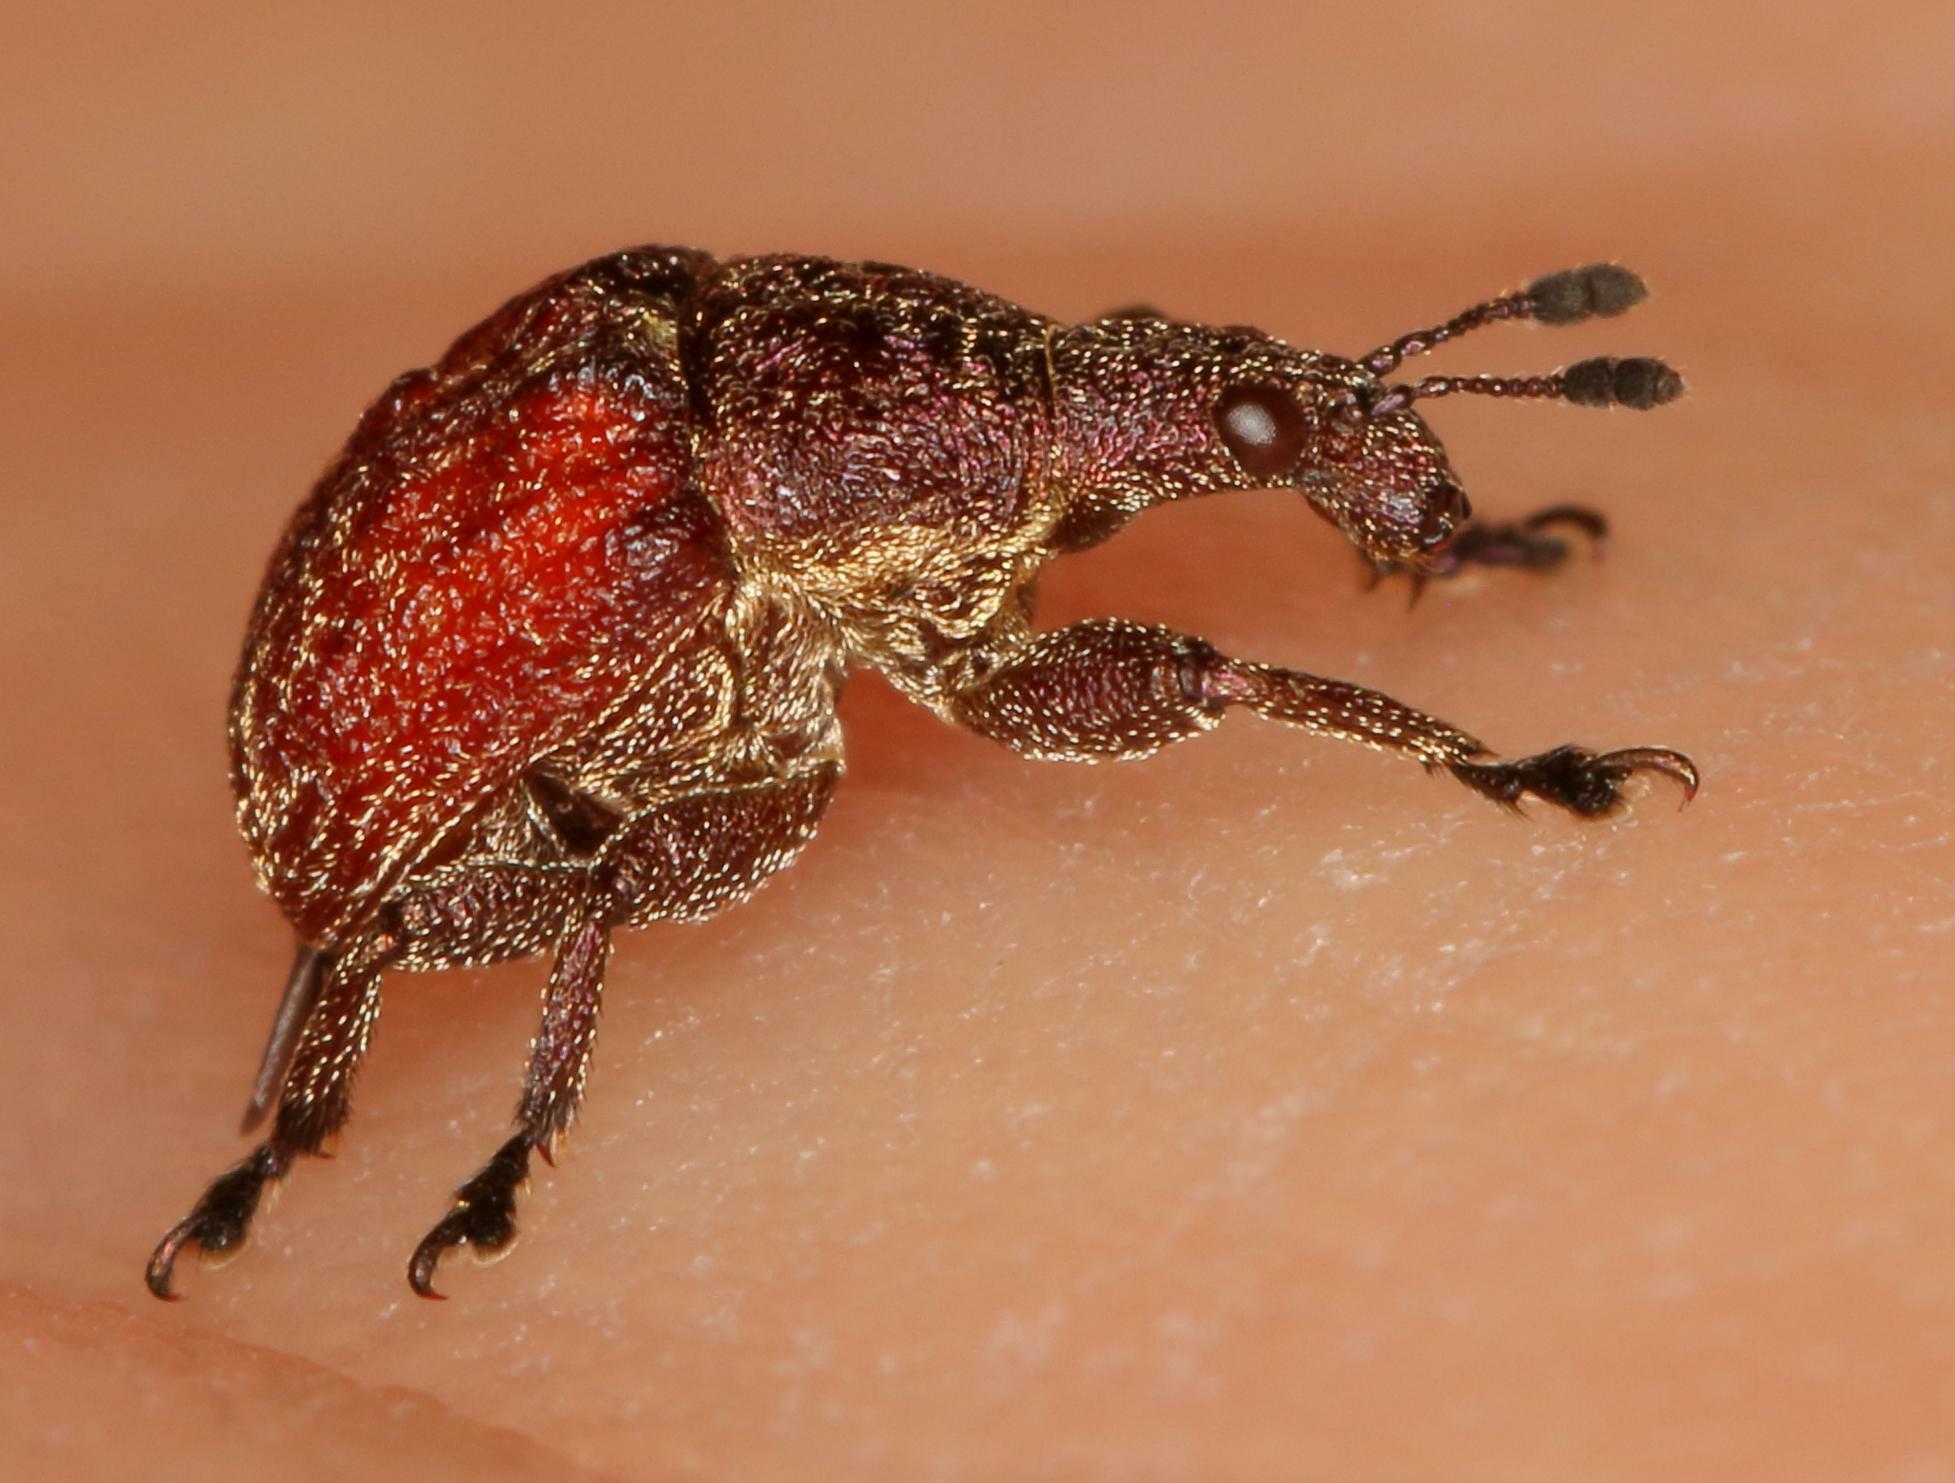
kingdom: Animalia
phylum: Arthropoda
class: Insecta
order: Coleoptera
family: Attelabidae
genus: Scotopsinus
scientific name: Scotopsinus bituberculatipennis
